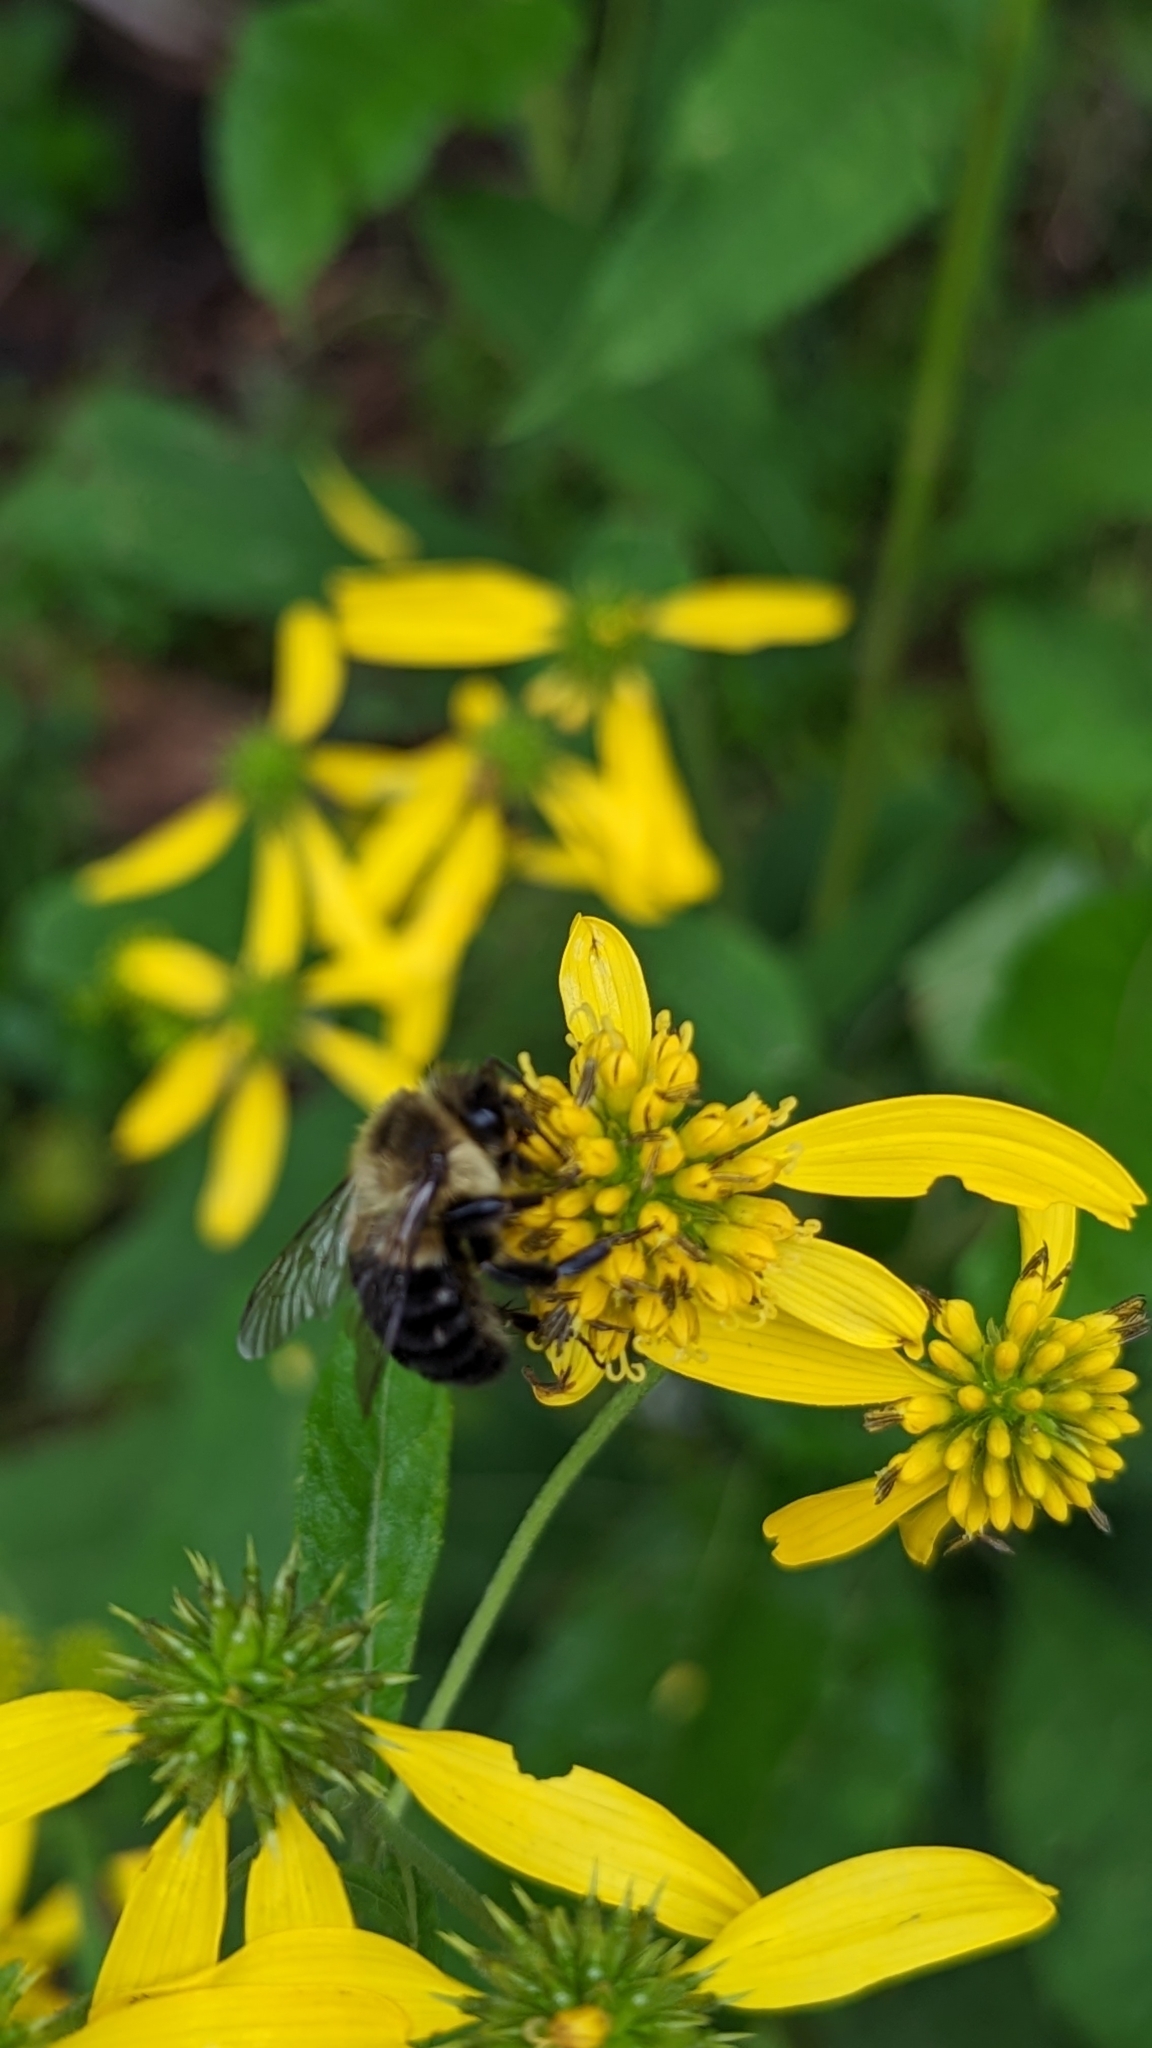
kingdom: Animalia
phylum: Arthropoda
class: Insecta
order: Hymenoptera
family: Apidae
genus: Bombus
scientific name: Bombus impatiens
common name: Common eastern bumble bee
